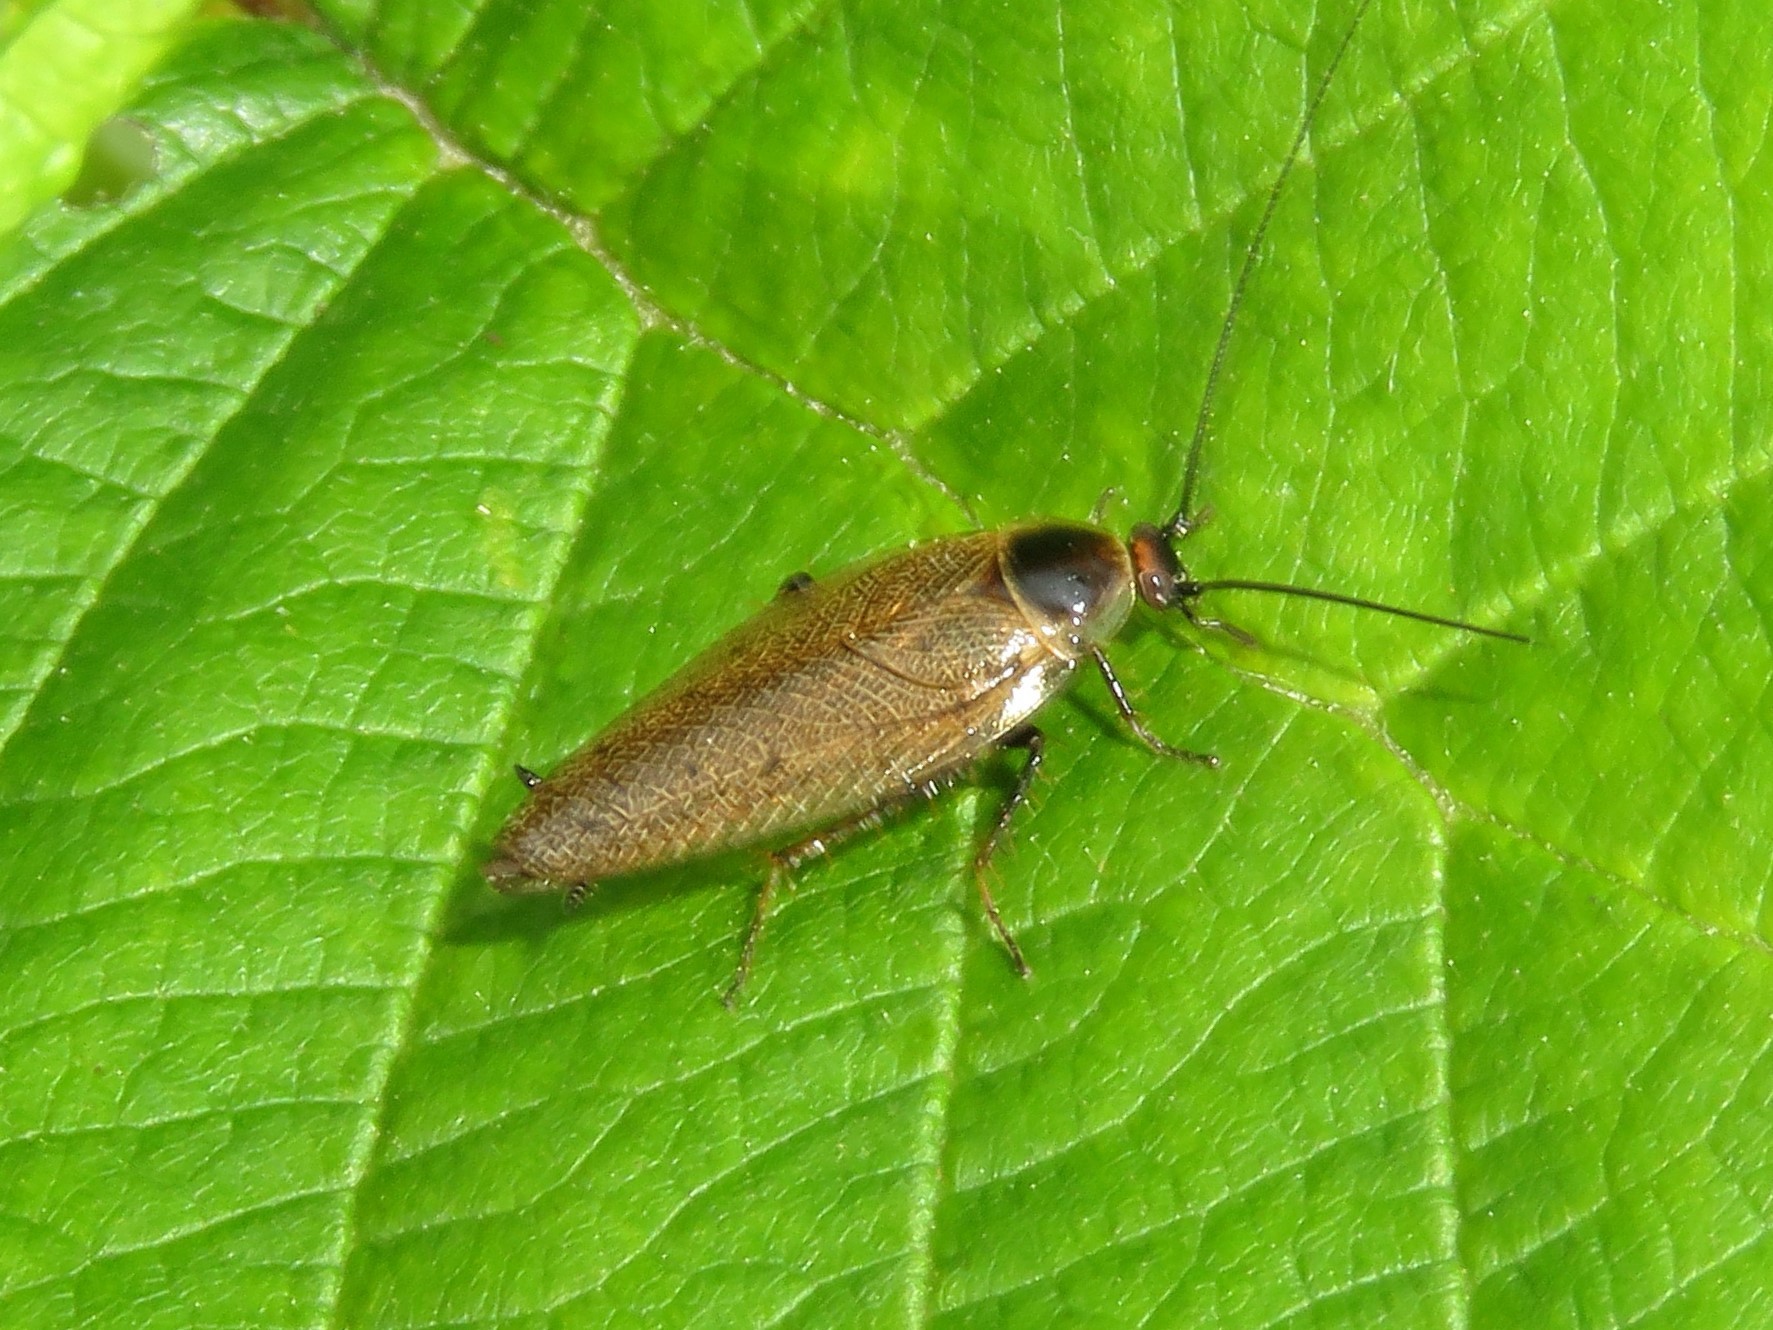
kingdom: Animalia
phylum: Arthropoda
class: Insecta
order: Blattodea
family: Ectobiidae
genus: Ectobius
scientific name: Ectobius lapponicus
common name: Dusky cockroach
